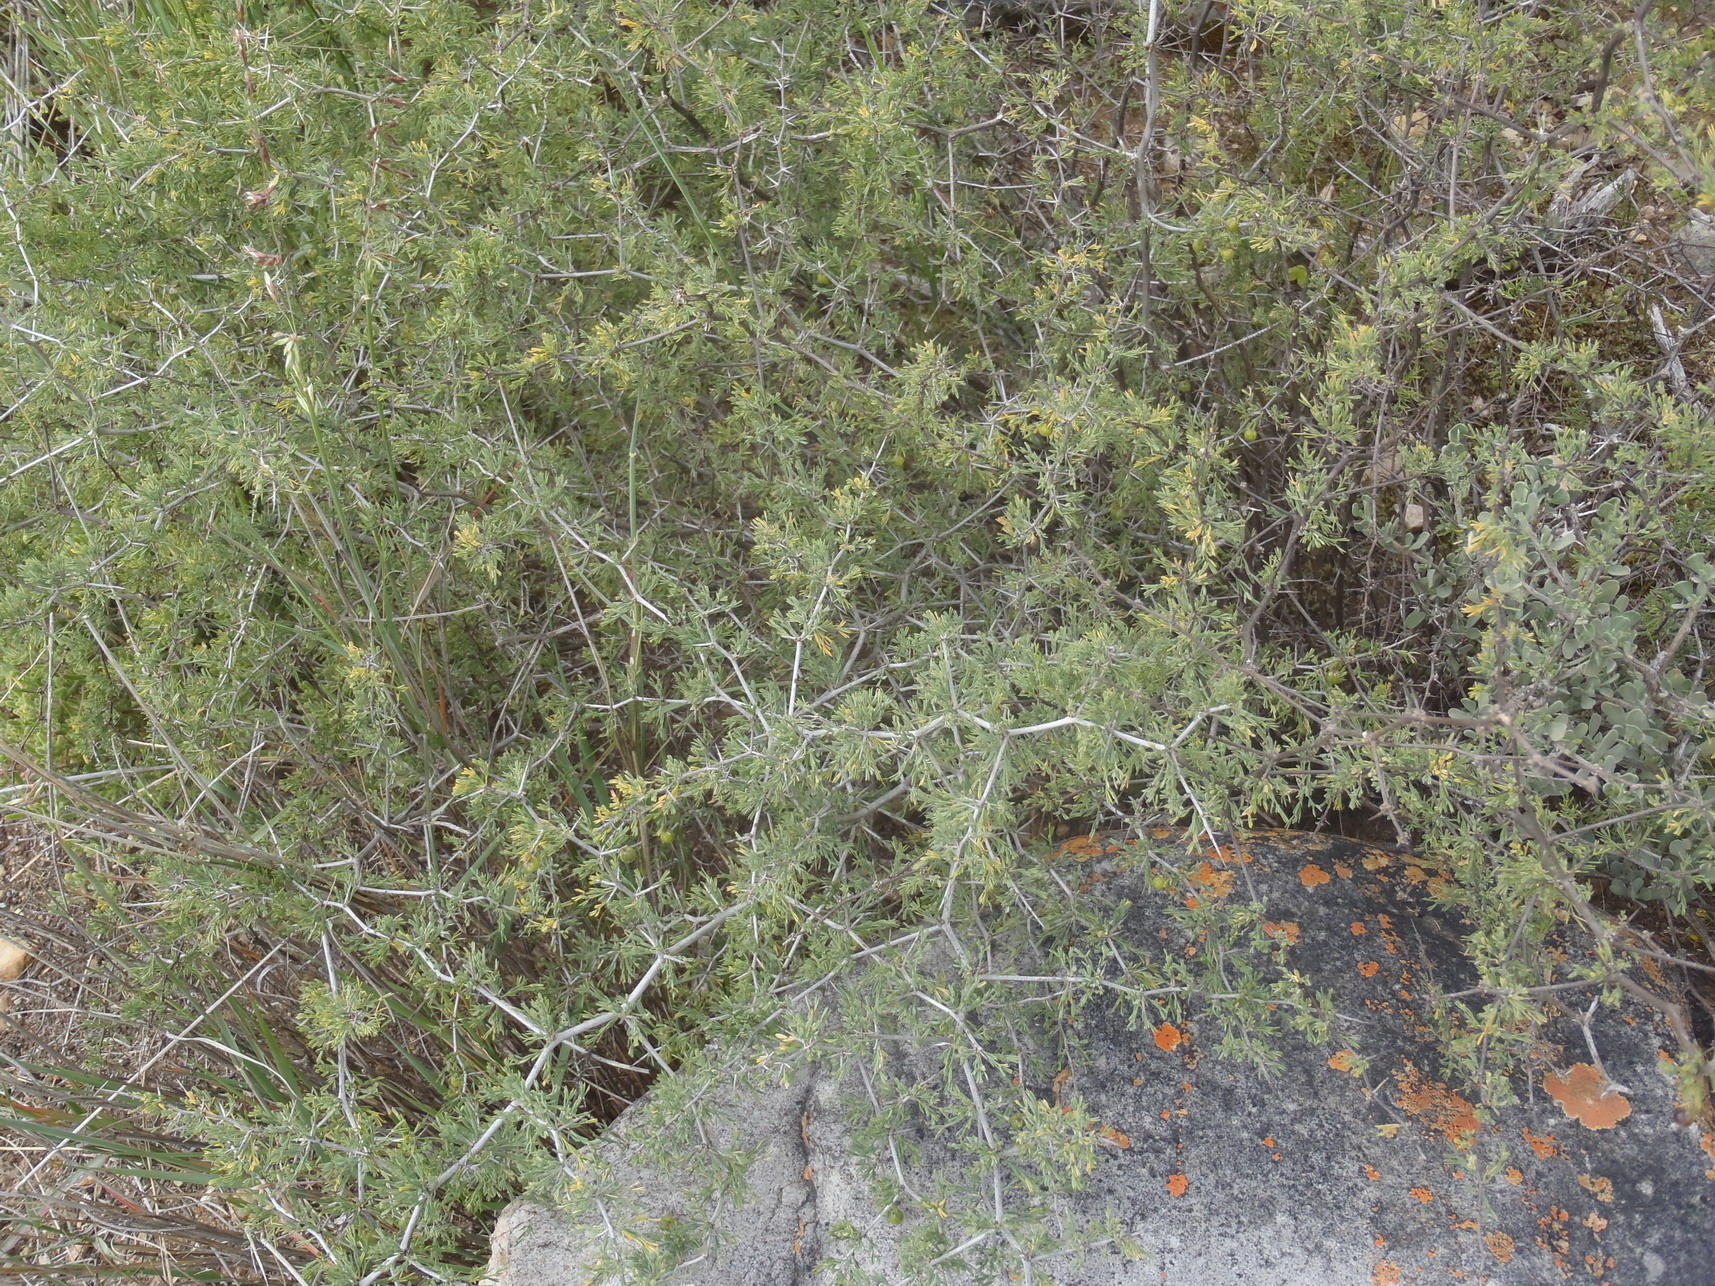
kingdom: Plantae
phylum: Tracheophyta
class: Liliopsida
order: Asparagales
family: Asparagaceae
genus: Asparagus
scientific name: Asparagus suaveolens
